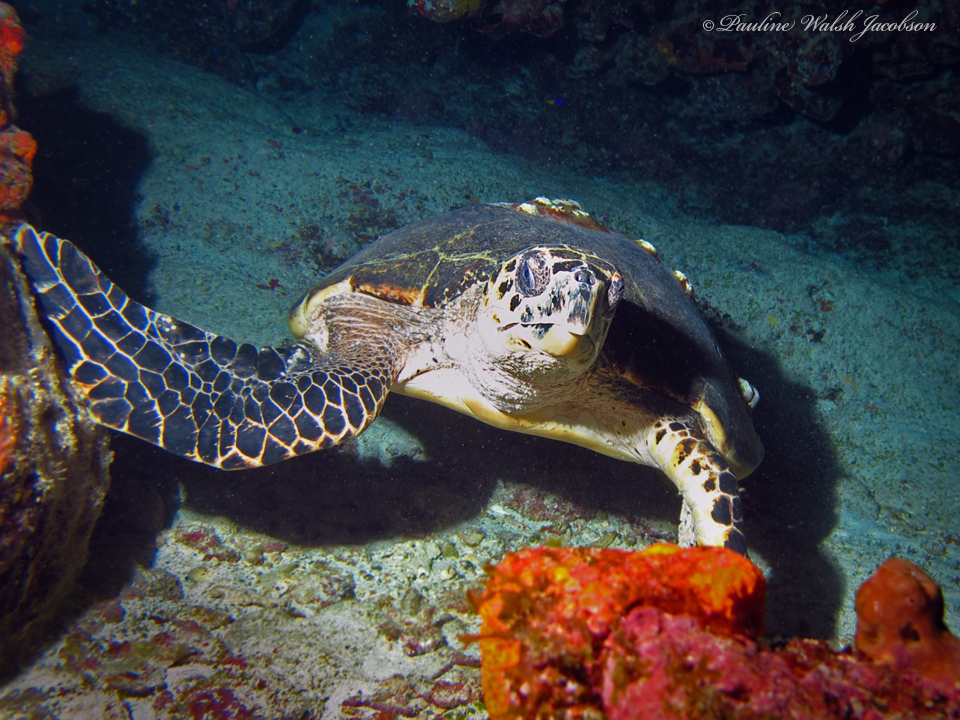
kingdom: Animalia
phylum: Chordata
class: Testudines
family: Cheloniidae
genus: Eretmochelys
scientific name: Eretmochelys imbricata
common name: Hawksbill turtle
